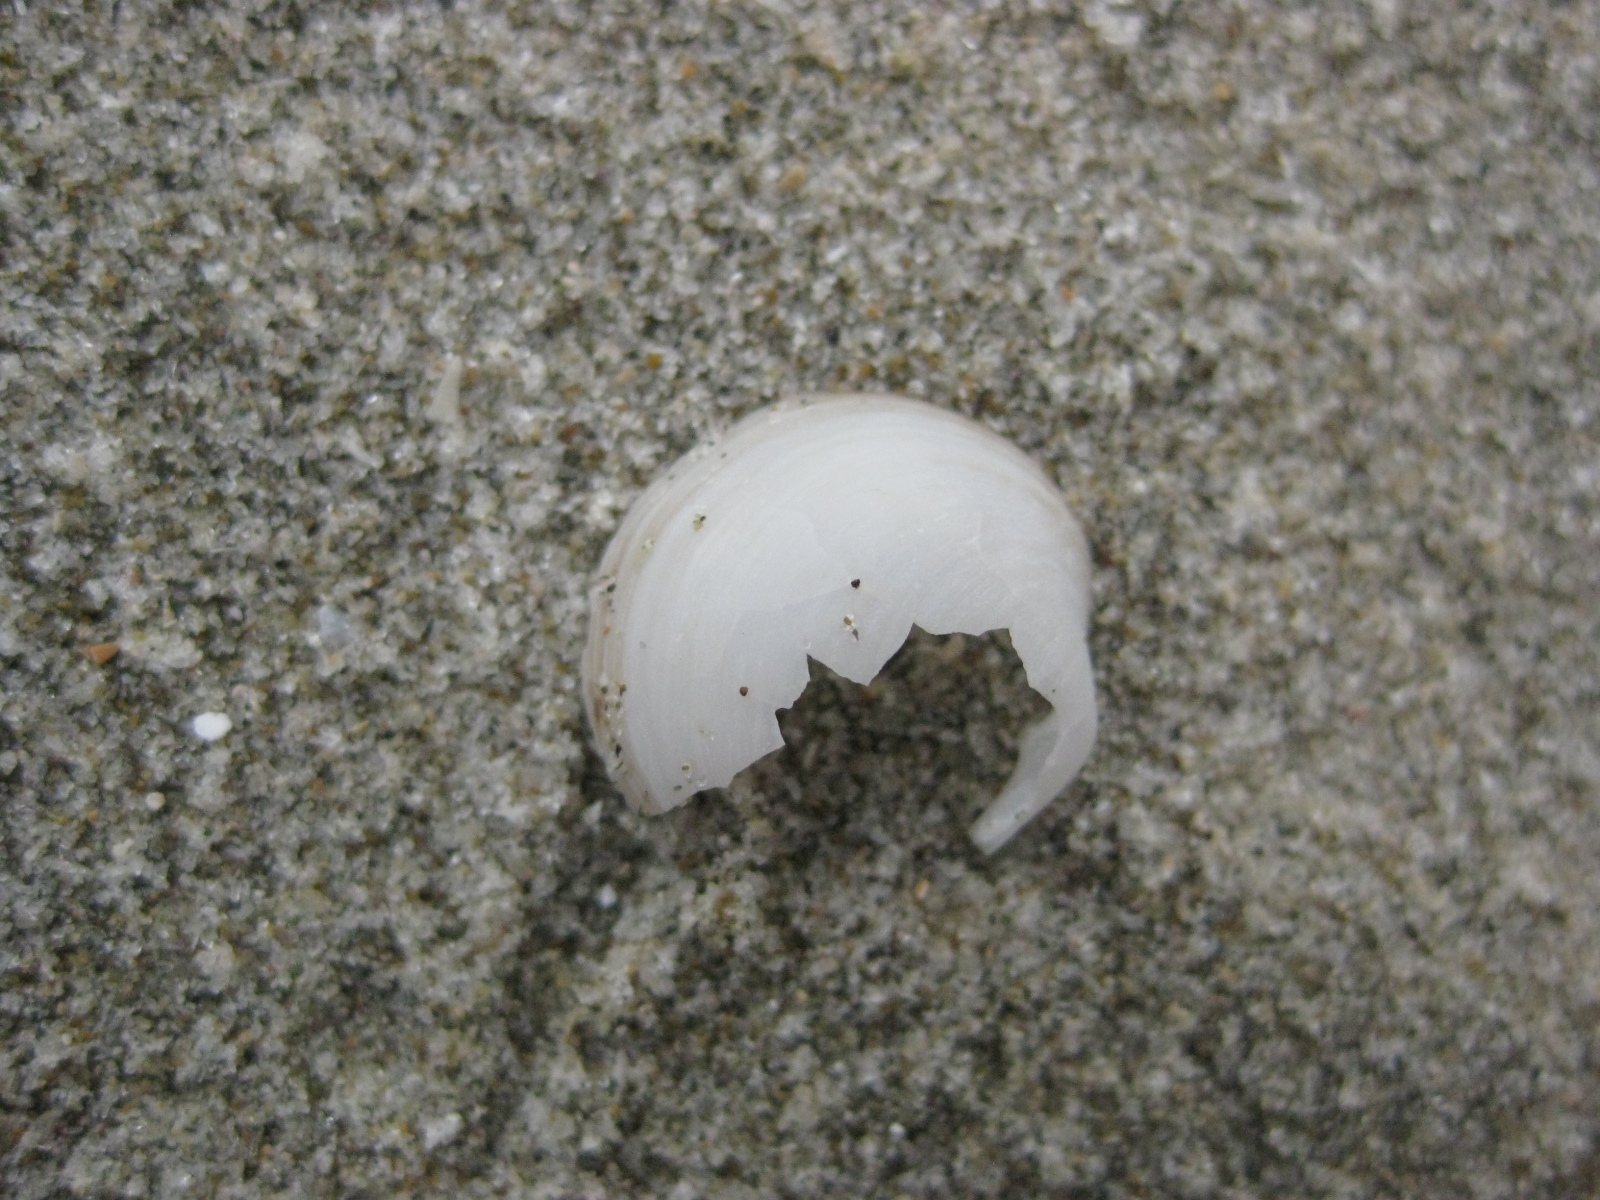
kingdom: Animalia
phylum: Mollusca
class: Bivalvia
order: Venerida
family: Ungulinidae
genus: Zemysina
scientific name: Zemysina striatula
